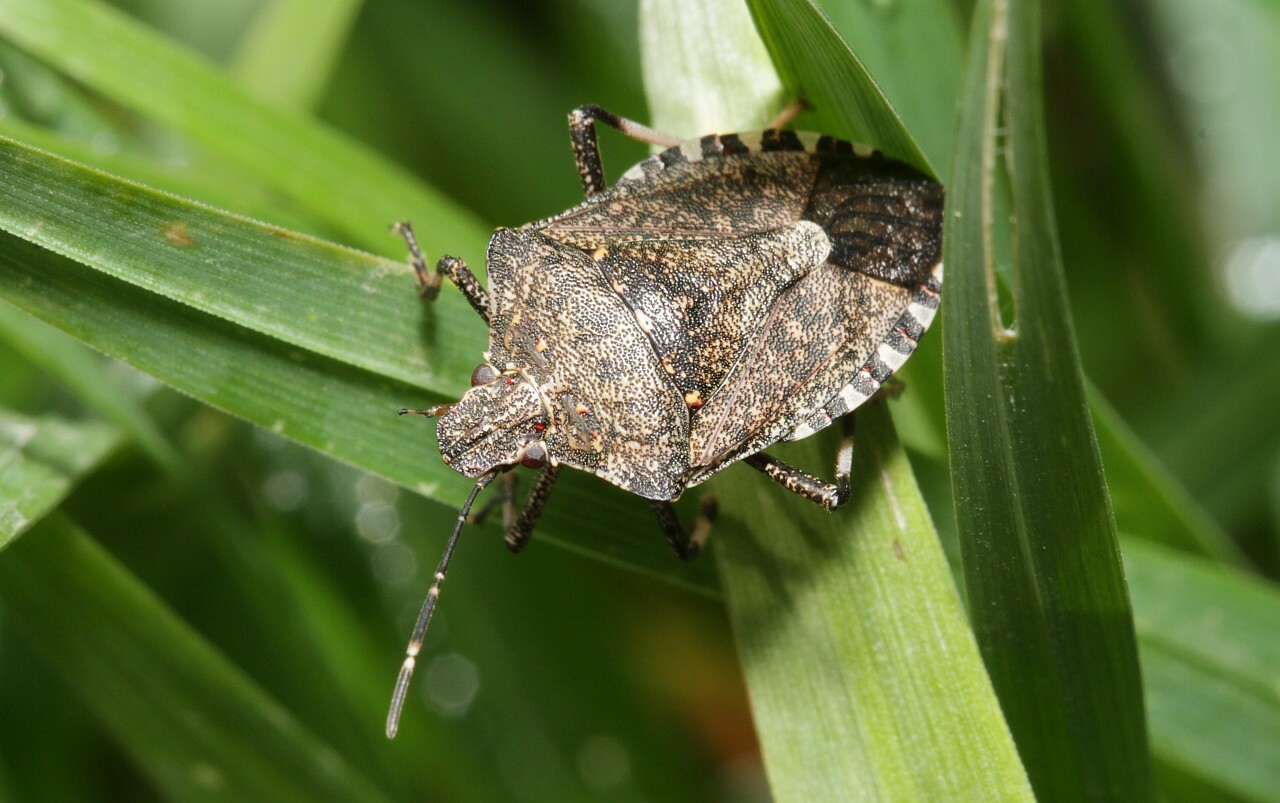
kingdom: Animalia
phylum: Arthropoda
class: Insecta
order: Hemiptera
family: Pentatomidae
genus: Halyomorpha
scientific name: Halyomorpha halys
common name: Brown marmorated stink bug
